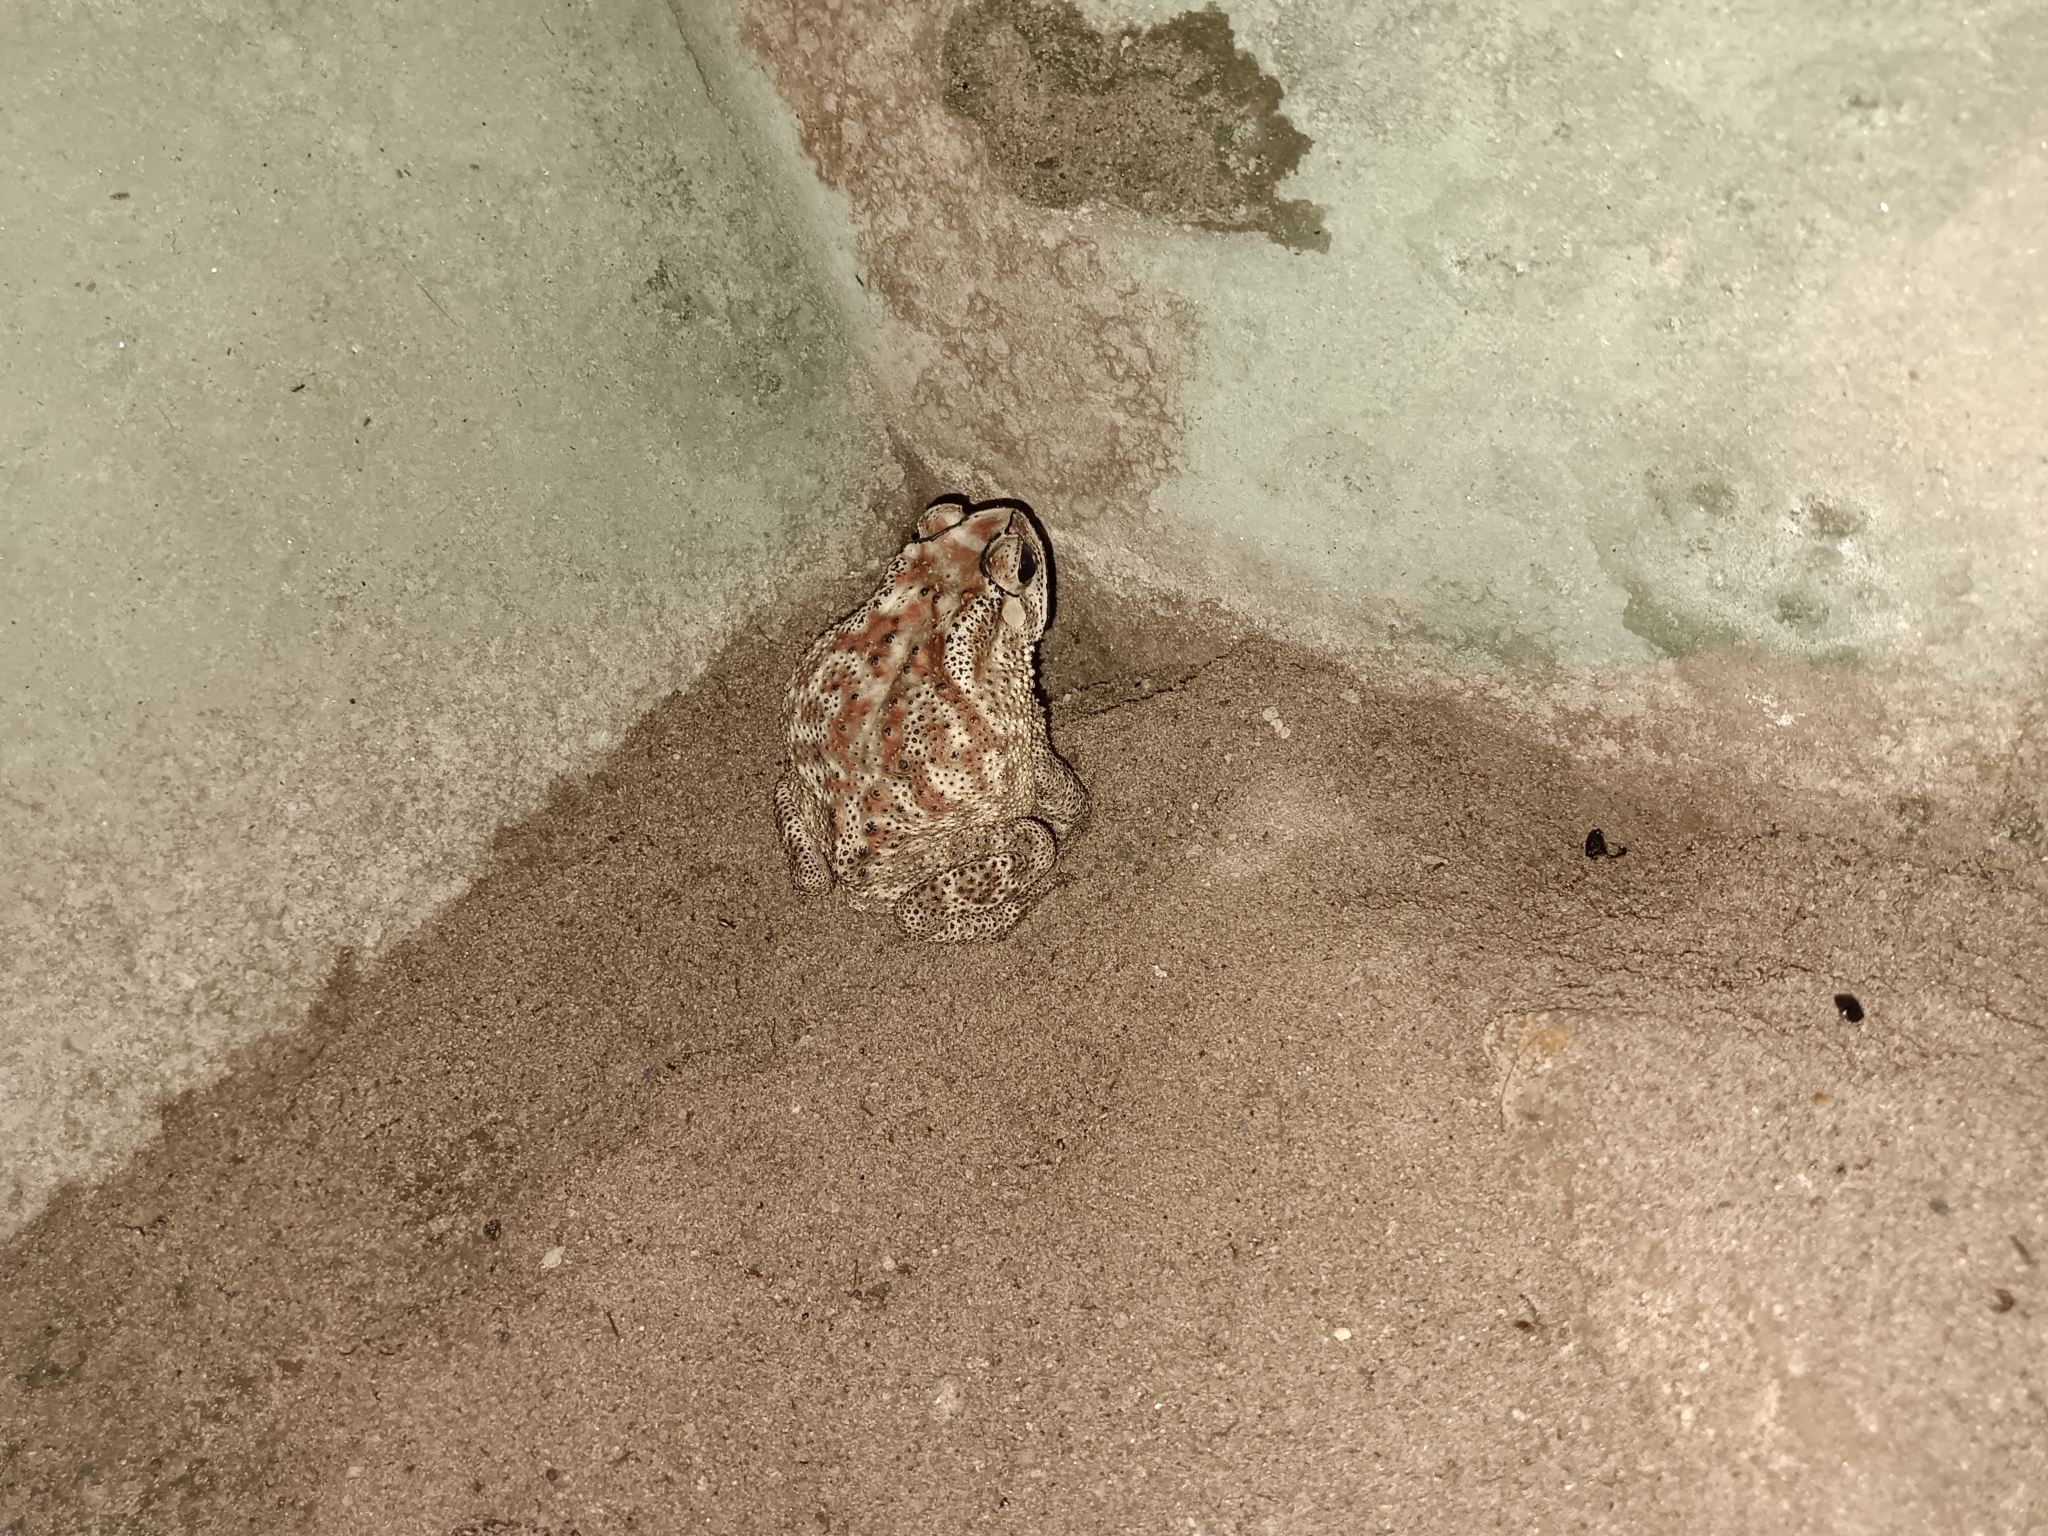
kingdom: Animalia
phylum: Chordata
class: Amphibia
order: Anura
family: Bufonidae
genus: Duttaphrynus
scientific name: Duttaphrynus melanostictus
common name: Common sunda toad
